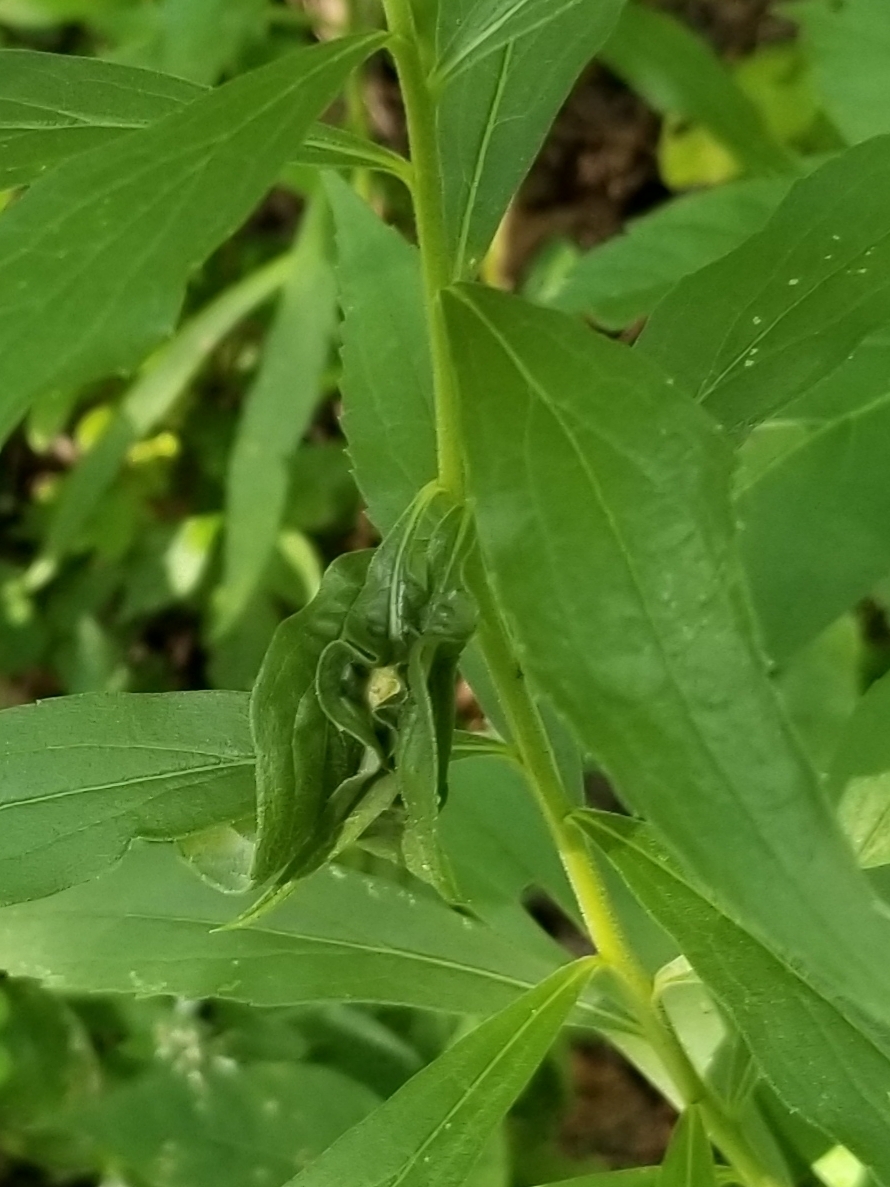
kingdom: Animalia
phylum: Arthropoda
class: Insecta
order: Diptera
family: Cecidomyiidae
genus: Asphondylia
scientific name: Asphondylia solidaginis
